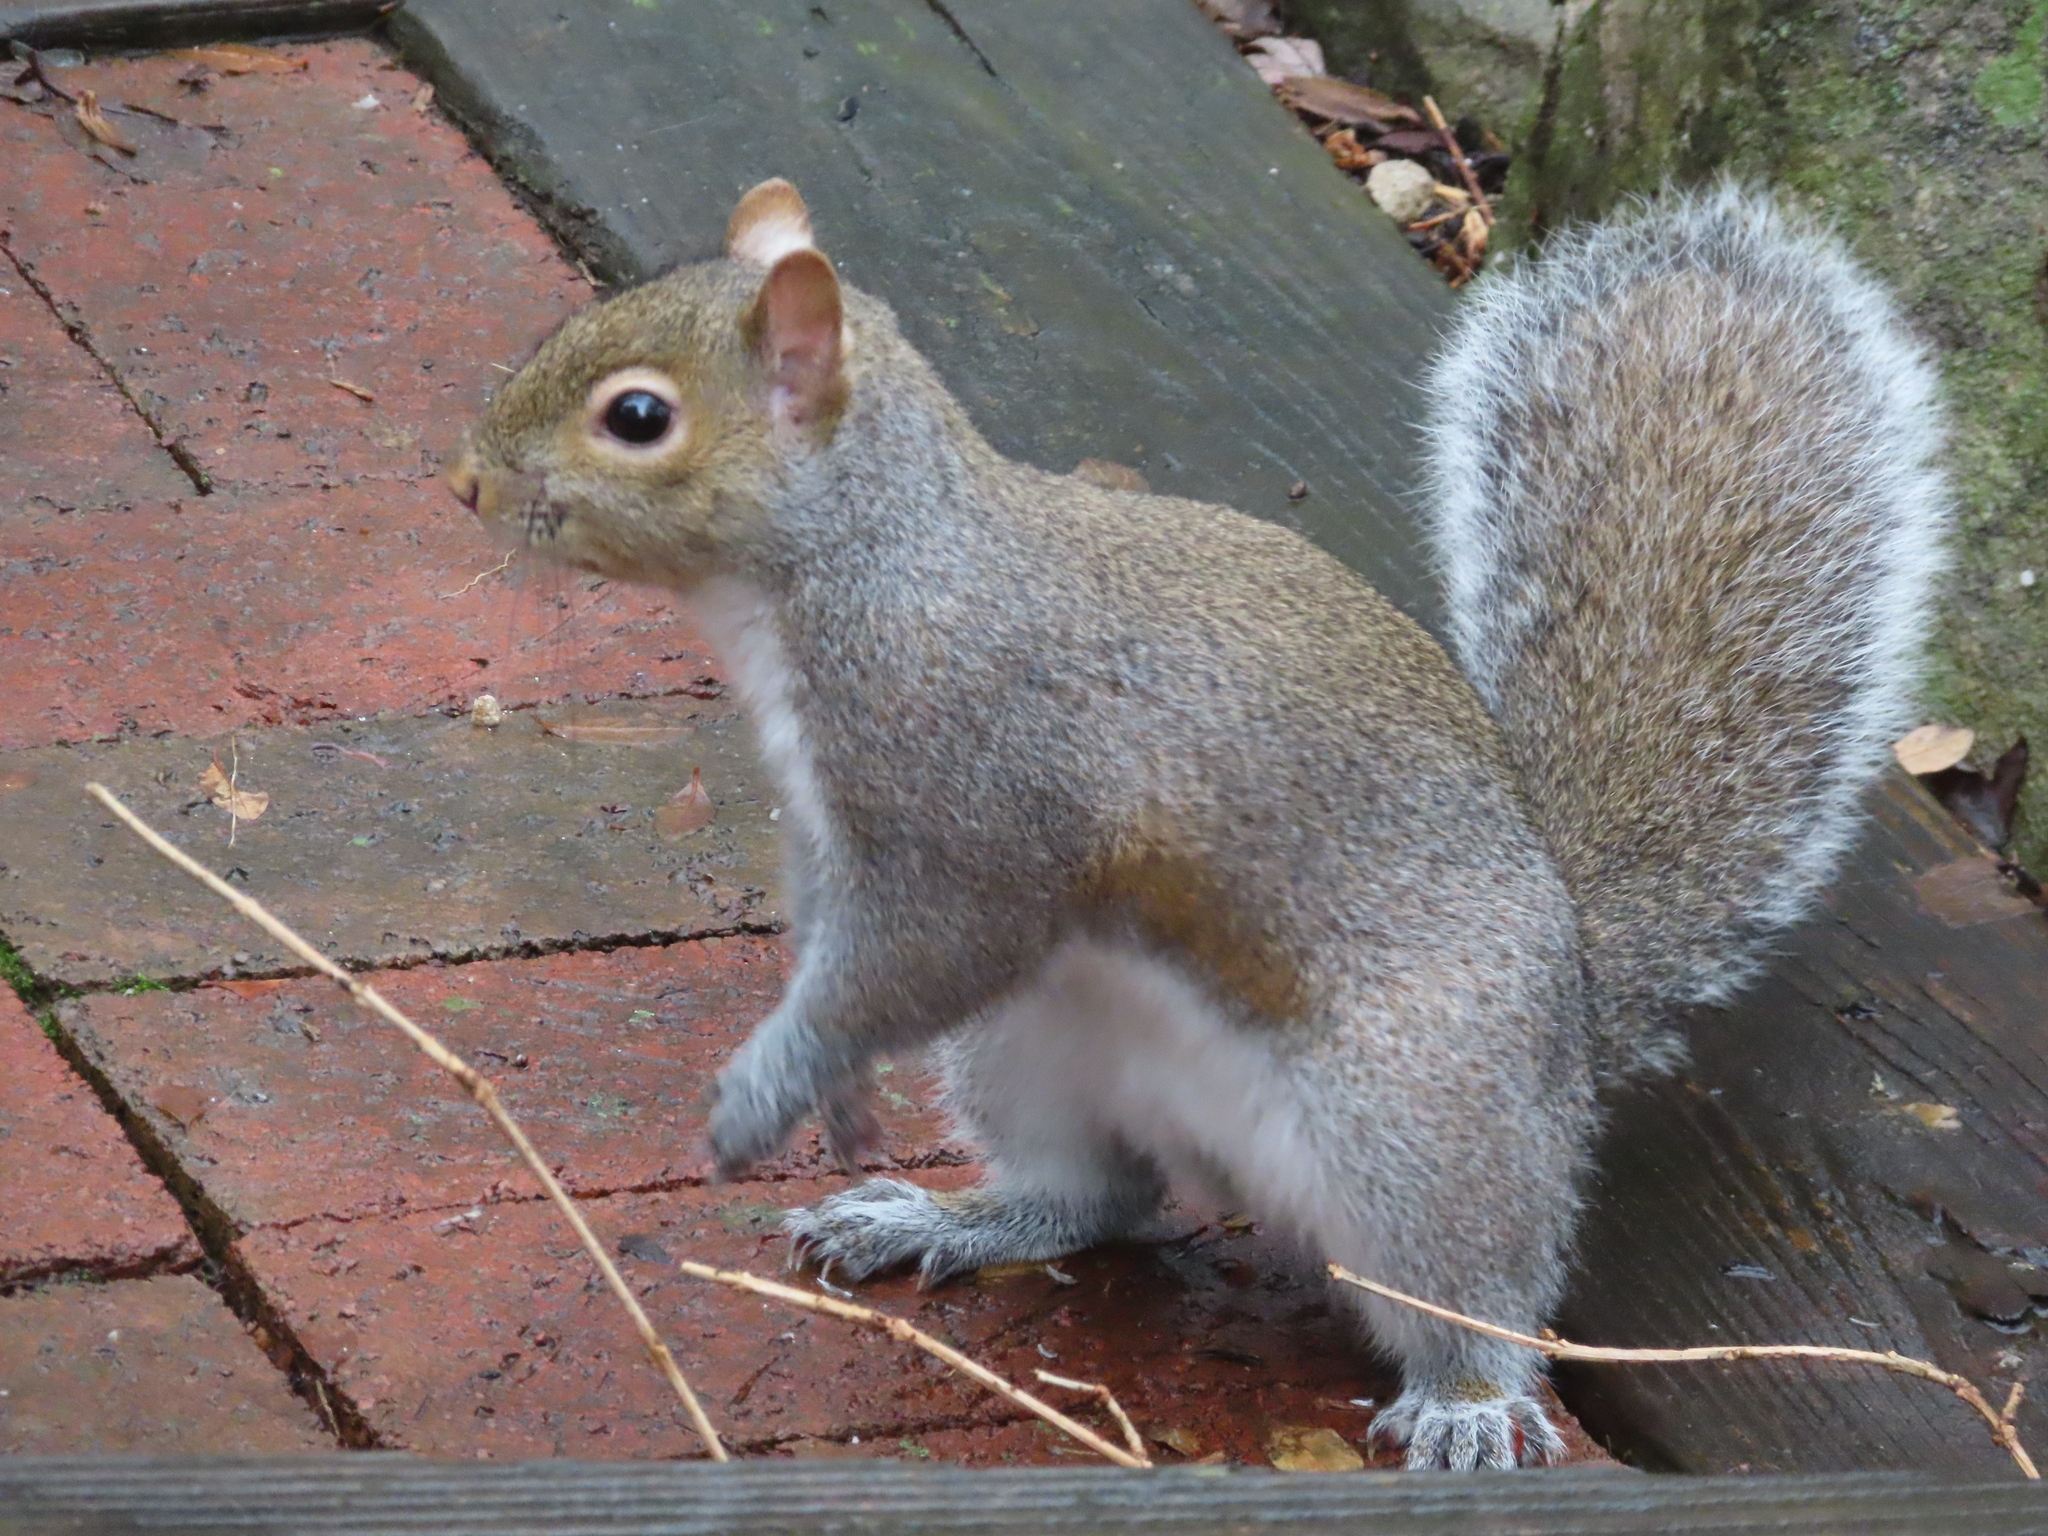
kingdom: Animalia
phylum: Chordata
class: Mammalia
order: Rodentia
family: Sciuridae
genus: Sciurus
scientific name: Sciurus carolinensis
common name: Eastern gray squirrel
